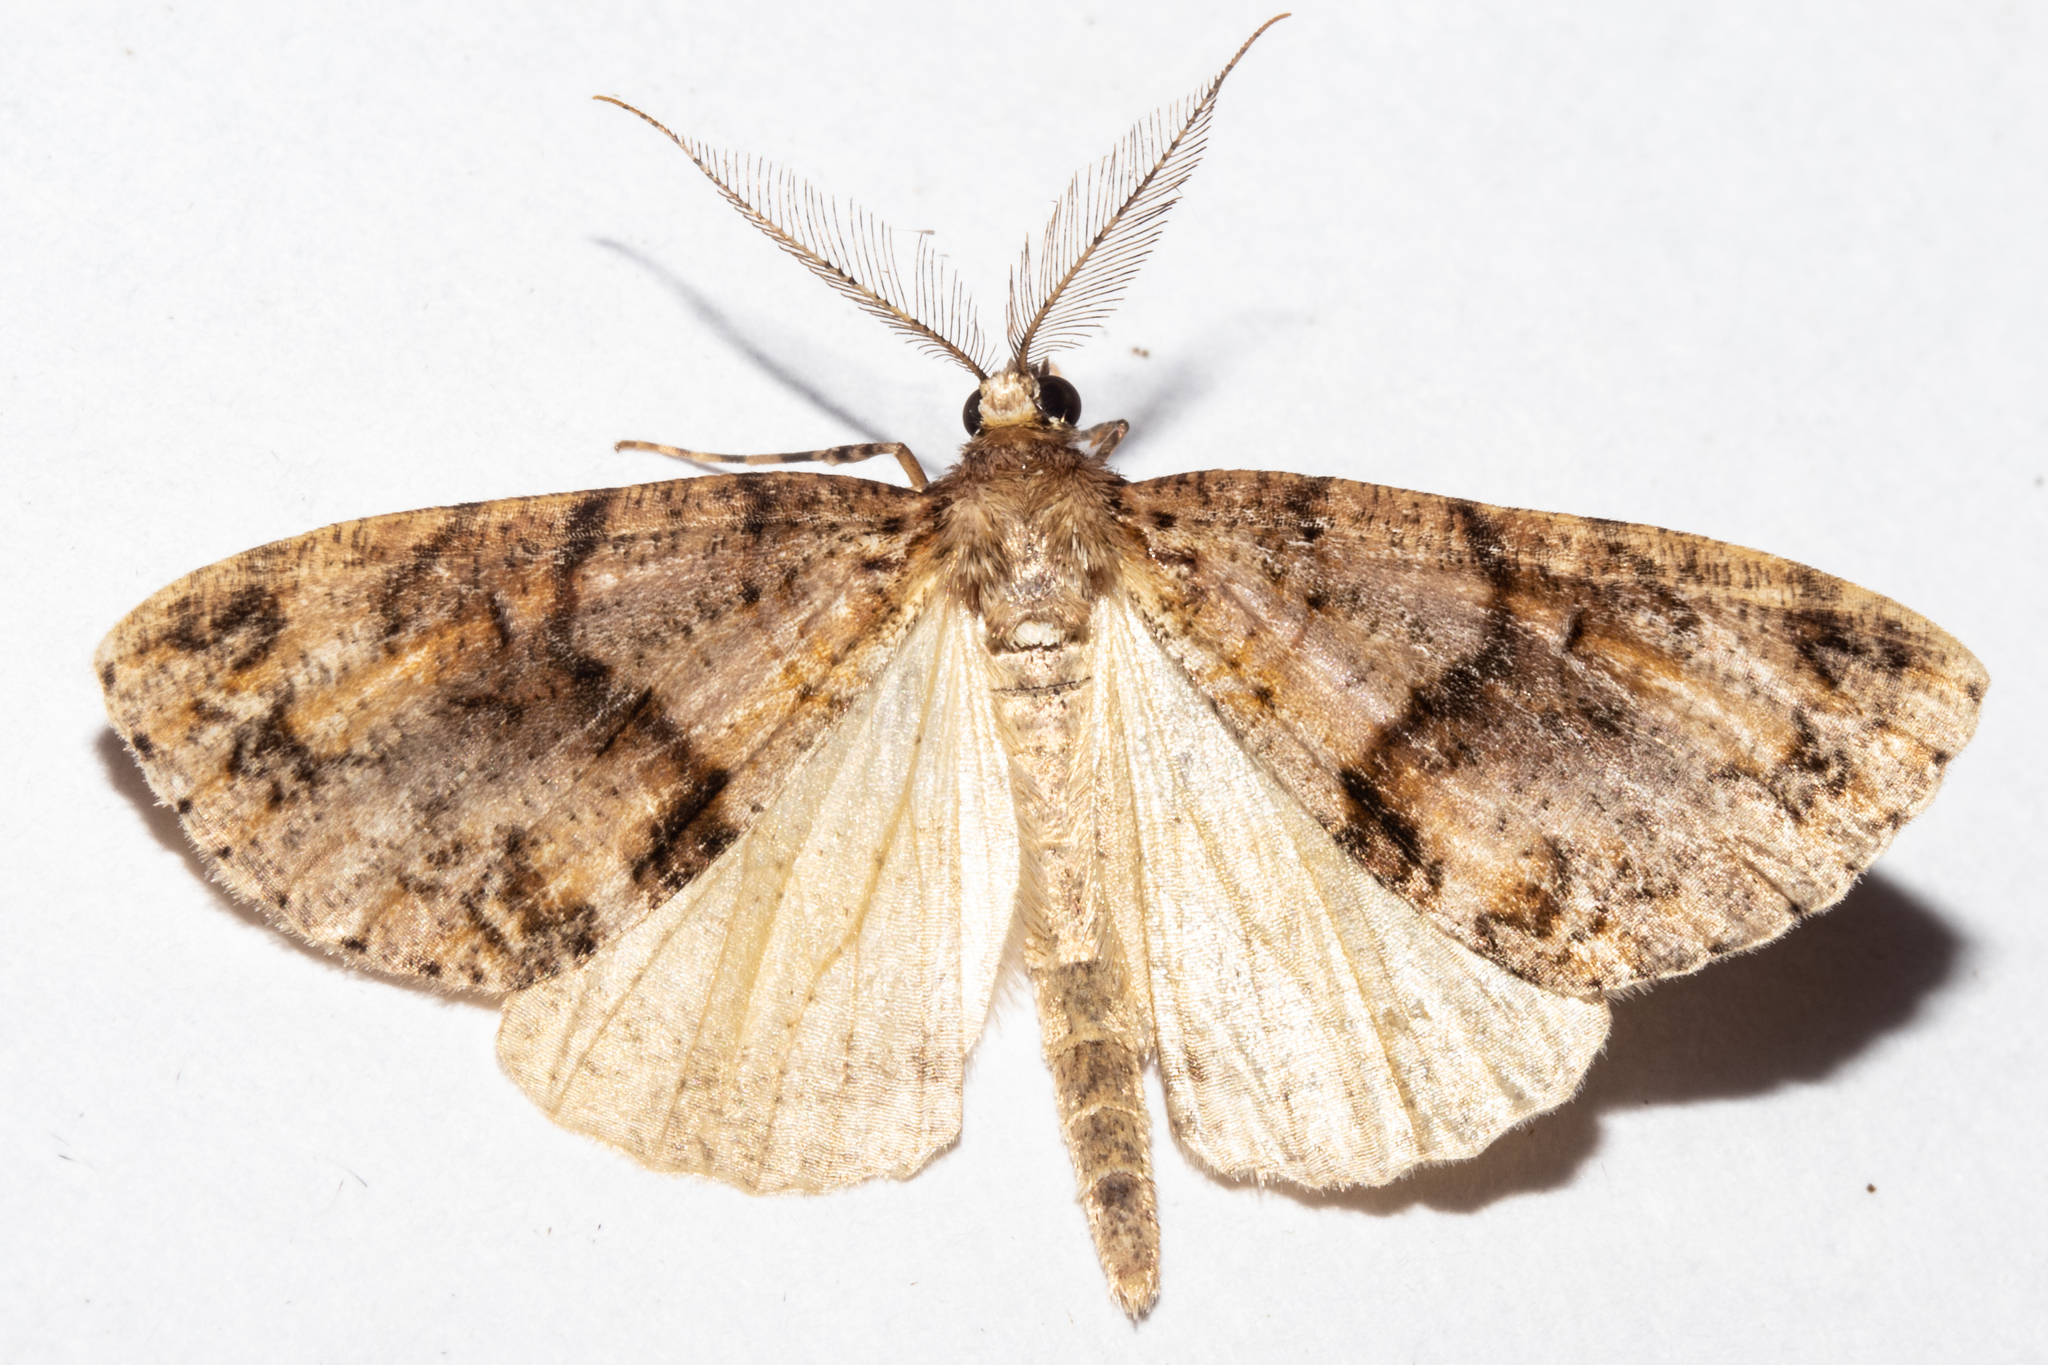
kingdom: Animalia
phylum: Arthropoda
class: Insecta
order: Lepidoptera
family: Geometridae
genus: Pseudocoremia
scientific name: Pseudocoremia suavis
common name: Common forest looper
